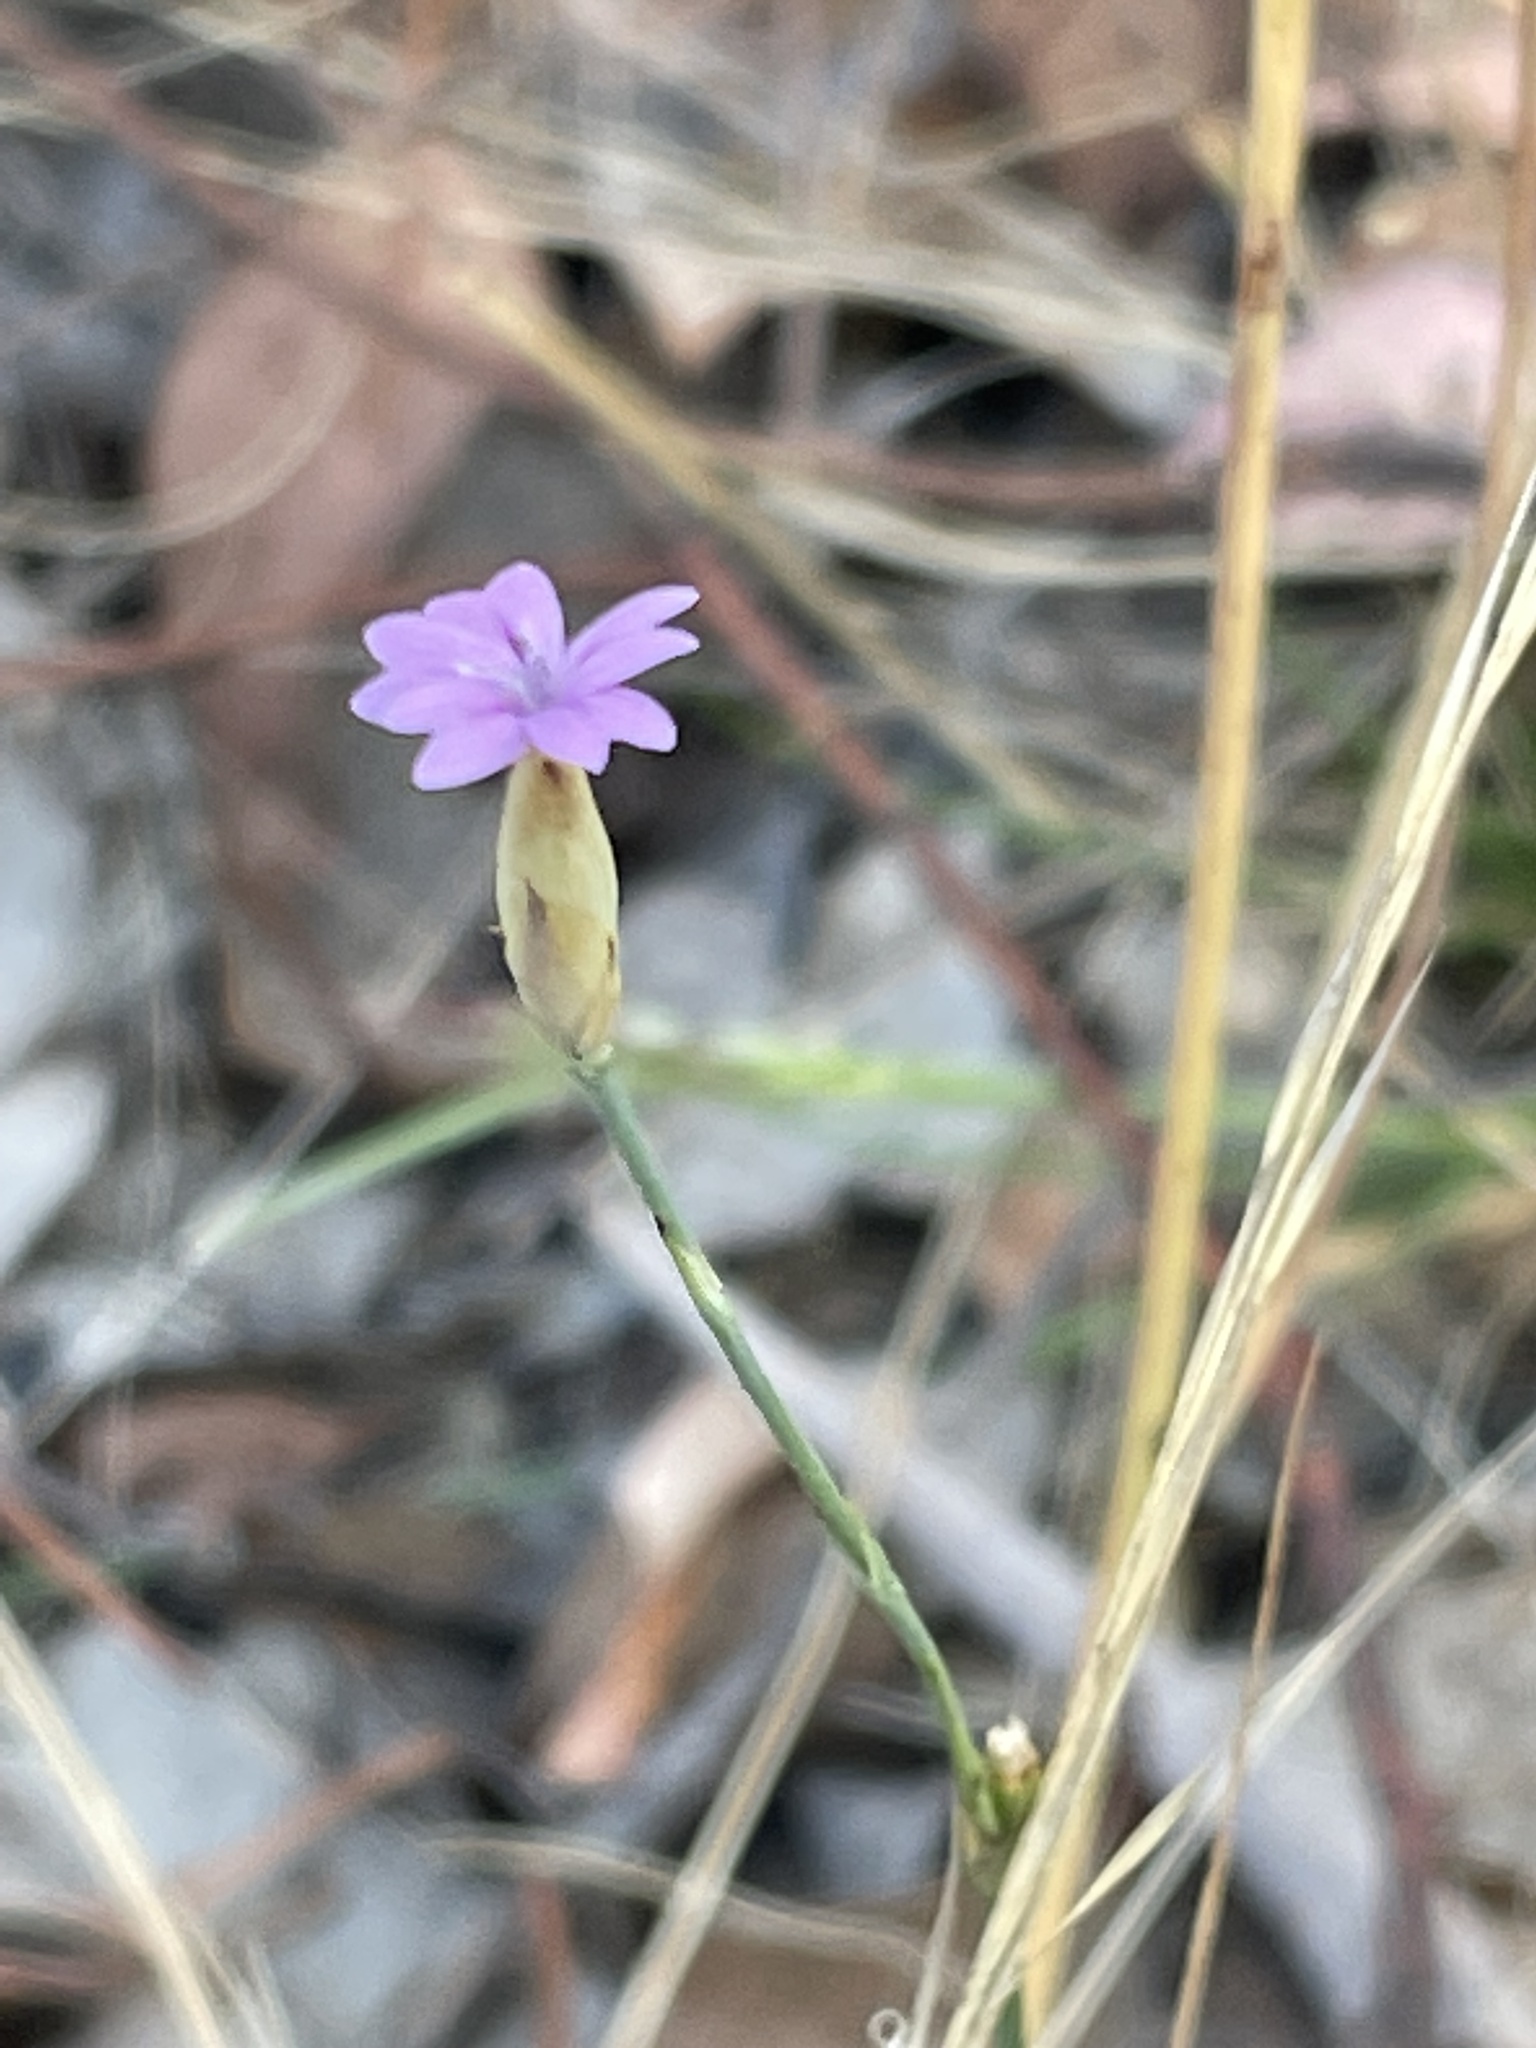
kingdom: Plantae
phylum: Tracheophyta
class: Magnoliopsida
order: Caryophyllales
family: Caryophyllaceae
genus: Petrorhagia
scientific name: Petrorhagia nanteuilii
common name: Proliferous pink
